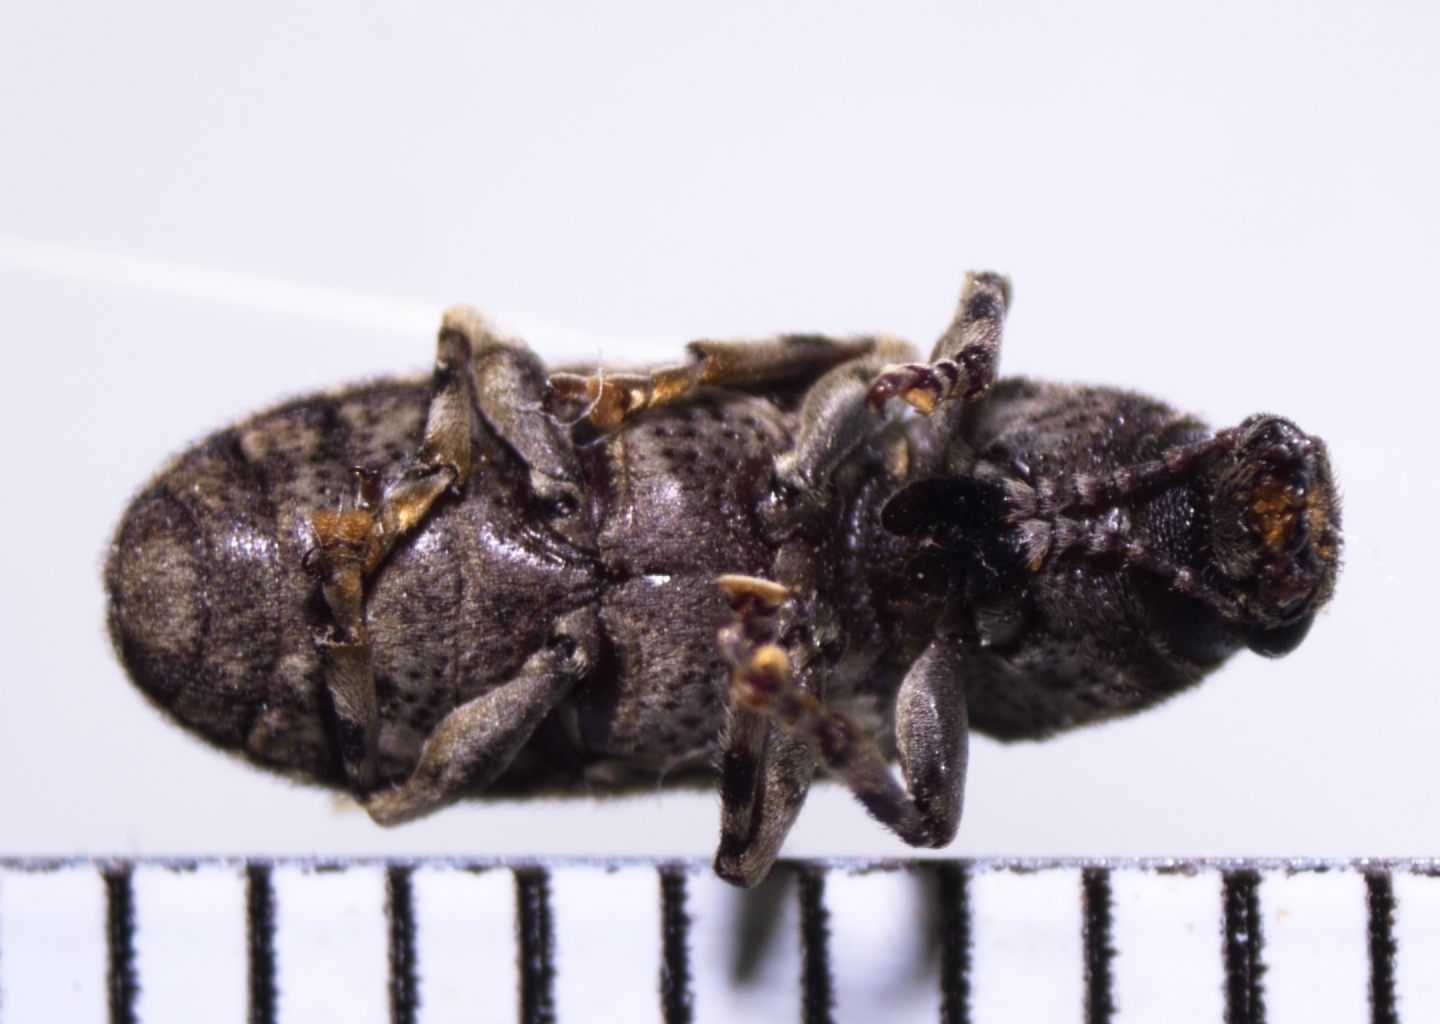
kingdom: Animalia
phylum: Arthropoda
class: Insecta
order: Coleoptera
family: Anthribidae
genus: Eucorynus
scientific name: Eucorynus crassicornis
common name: Fungus weevil
